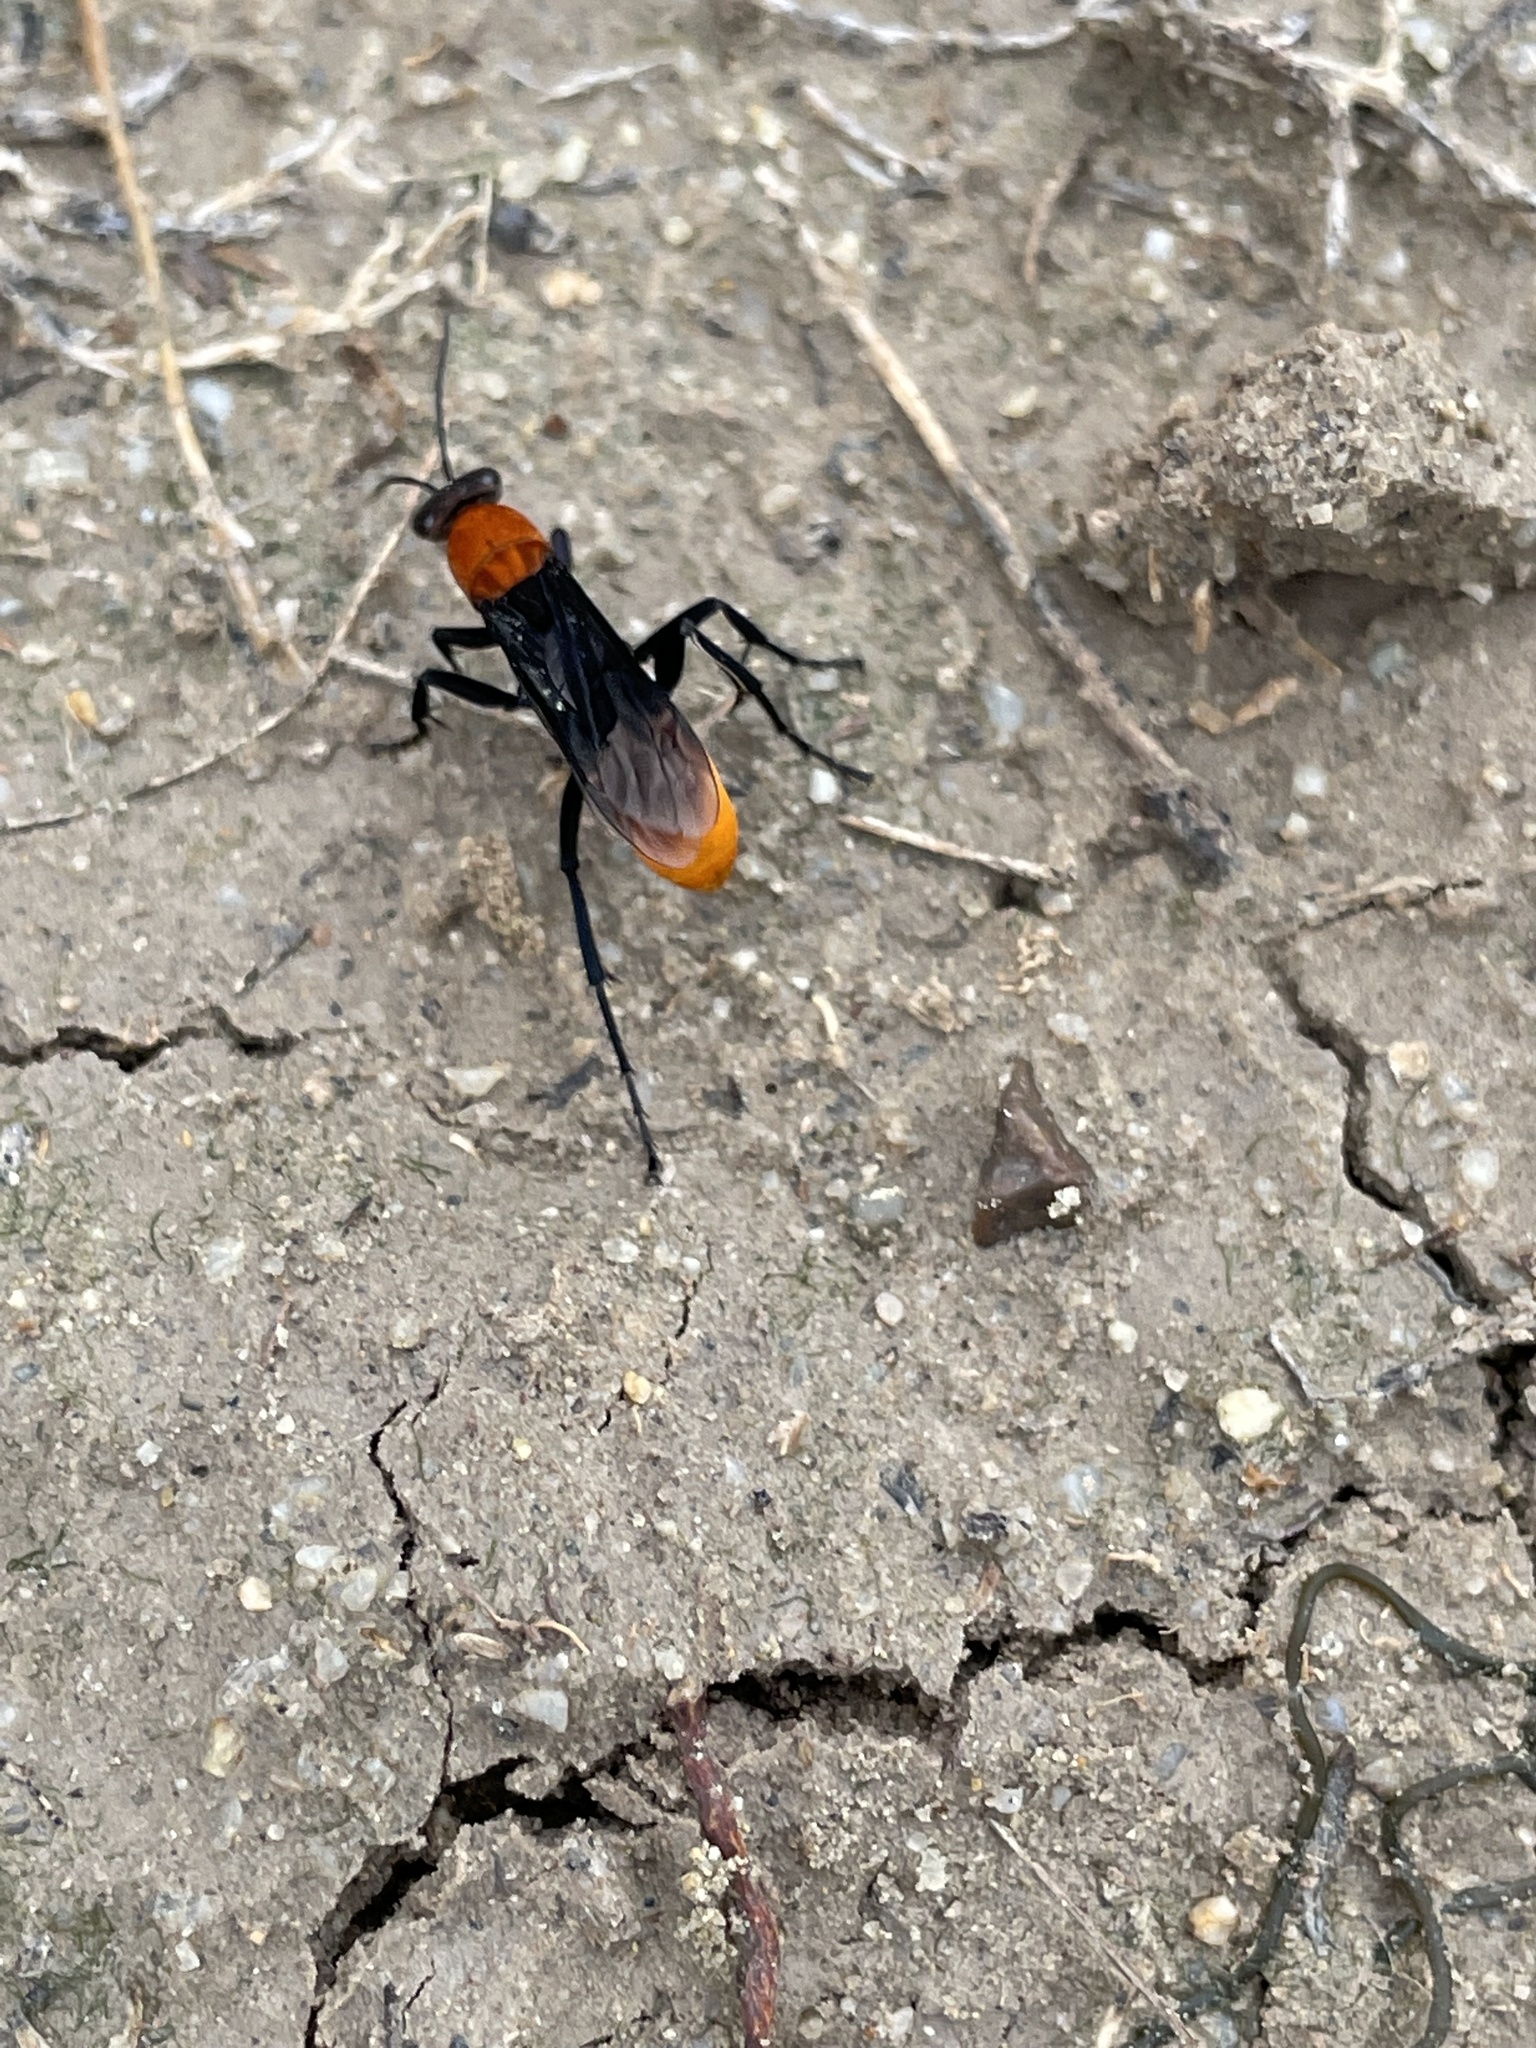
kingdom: Animalia
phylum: Arthropoda
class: Insecta
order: Hymenoptera
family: Pompilidae
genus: Psorthaspis
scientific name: Psorthaspis sanguinea
